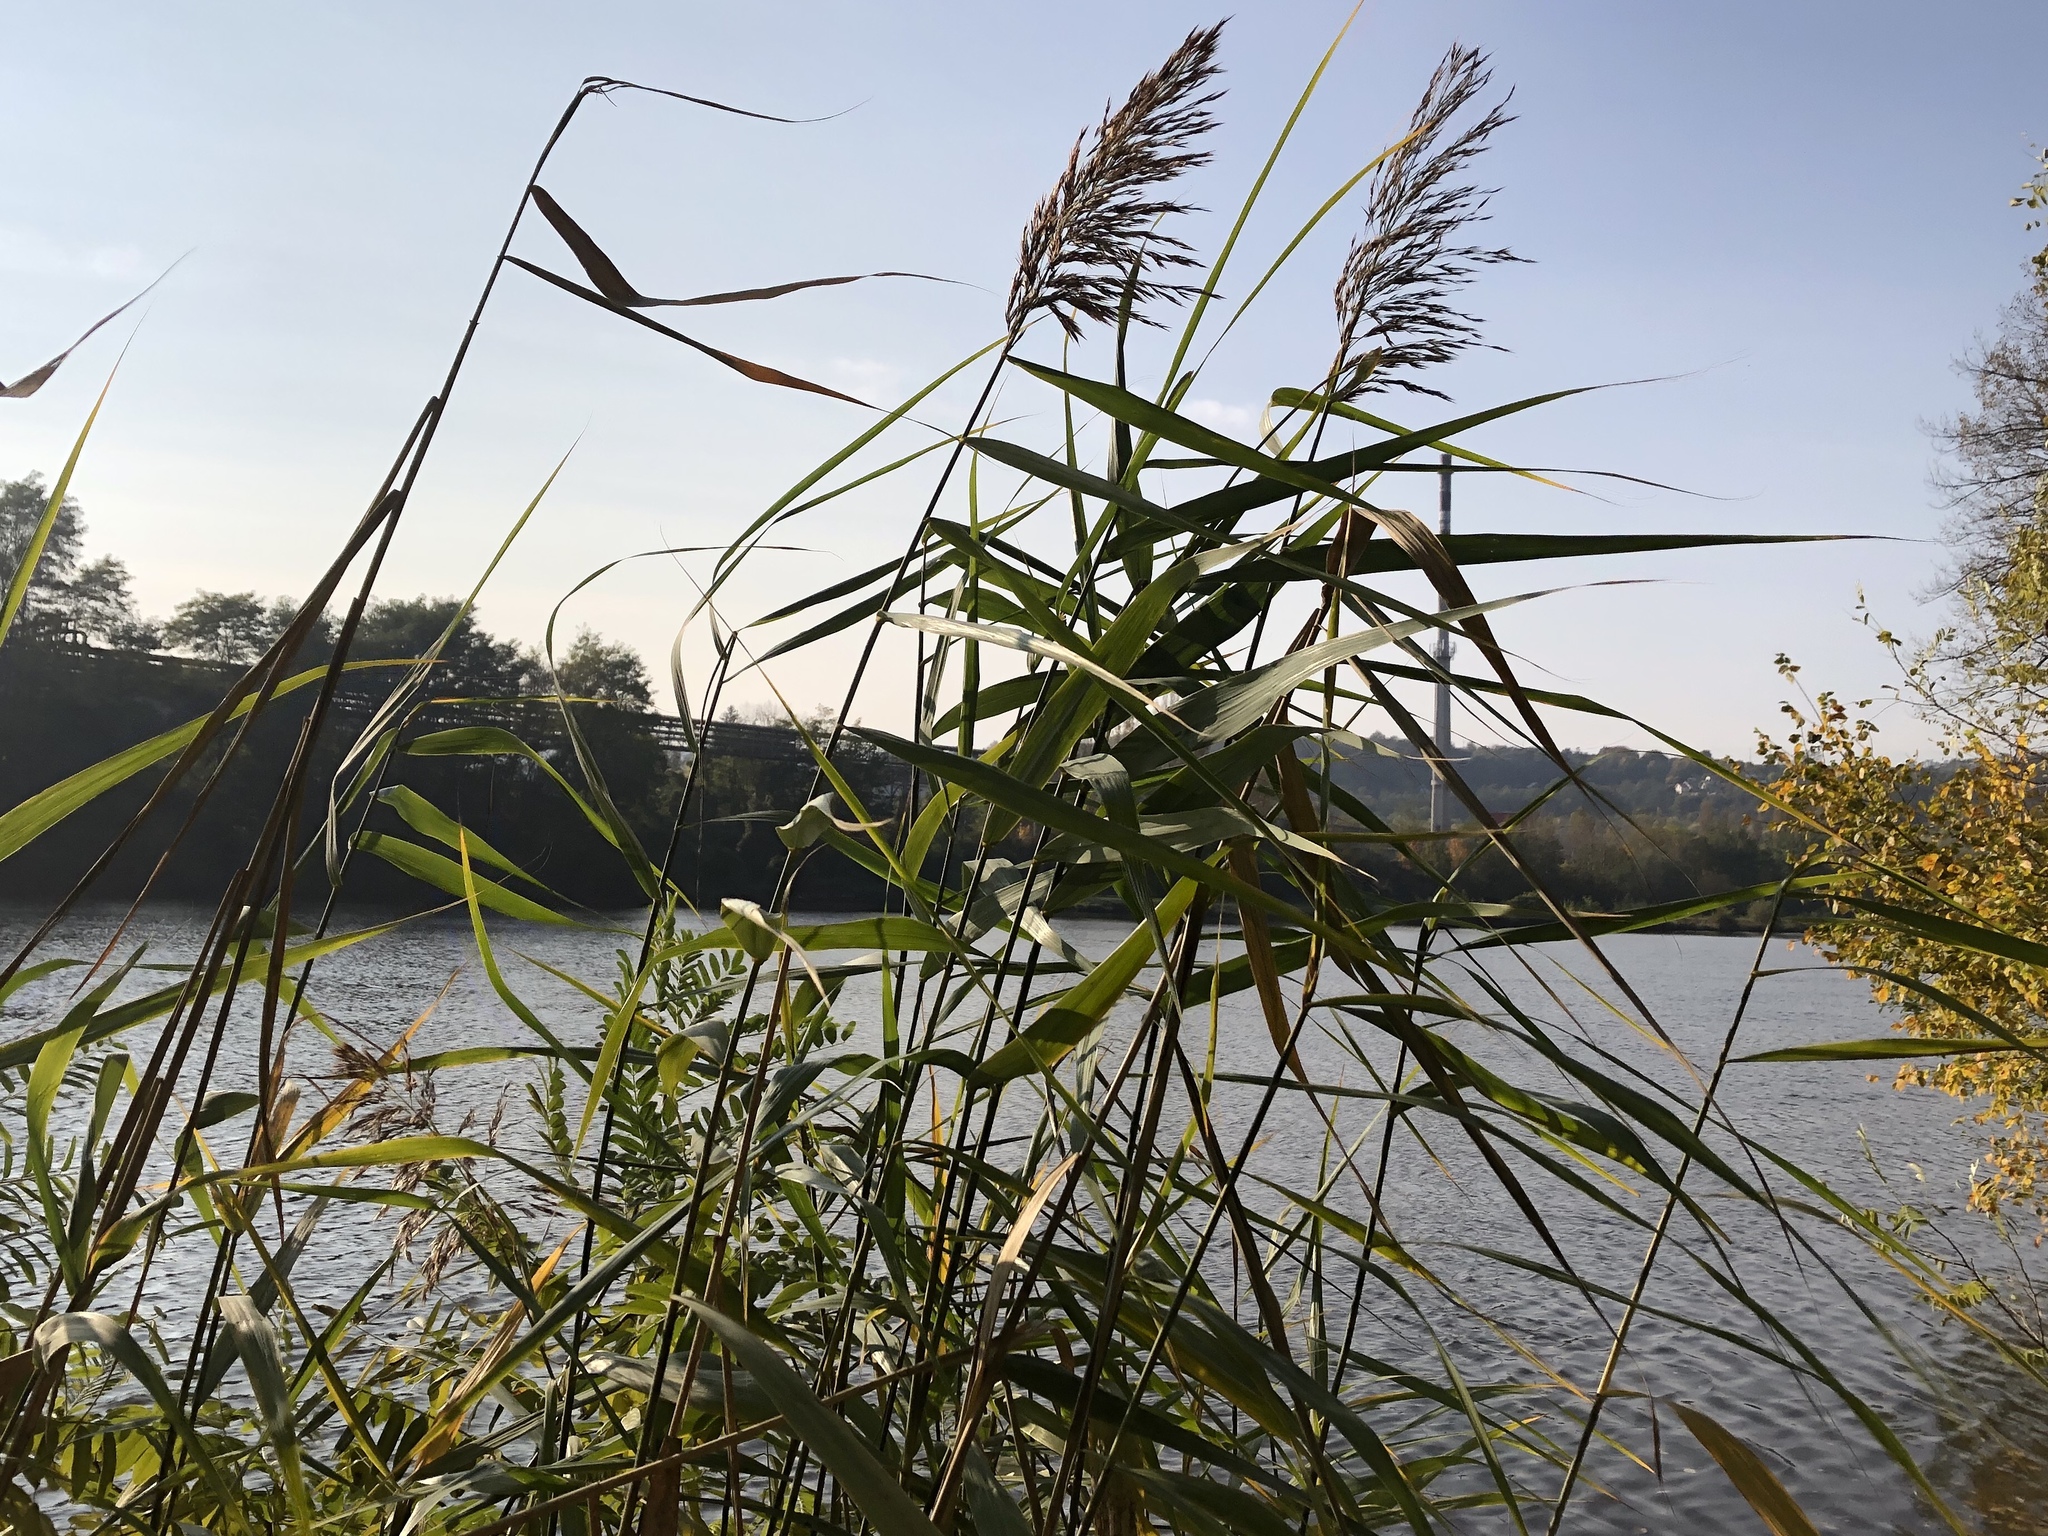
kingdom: Plantae
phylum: Tracheophyta
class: Liliopsida
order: Poales
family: Poaceae
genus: Phragmites
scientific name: Phragmites australis
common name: Common reed
